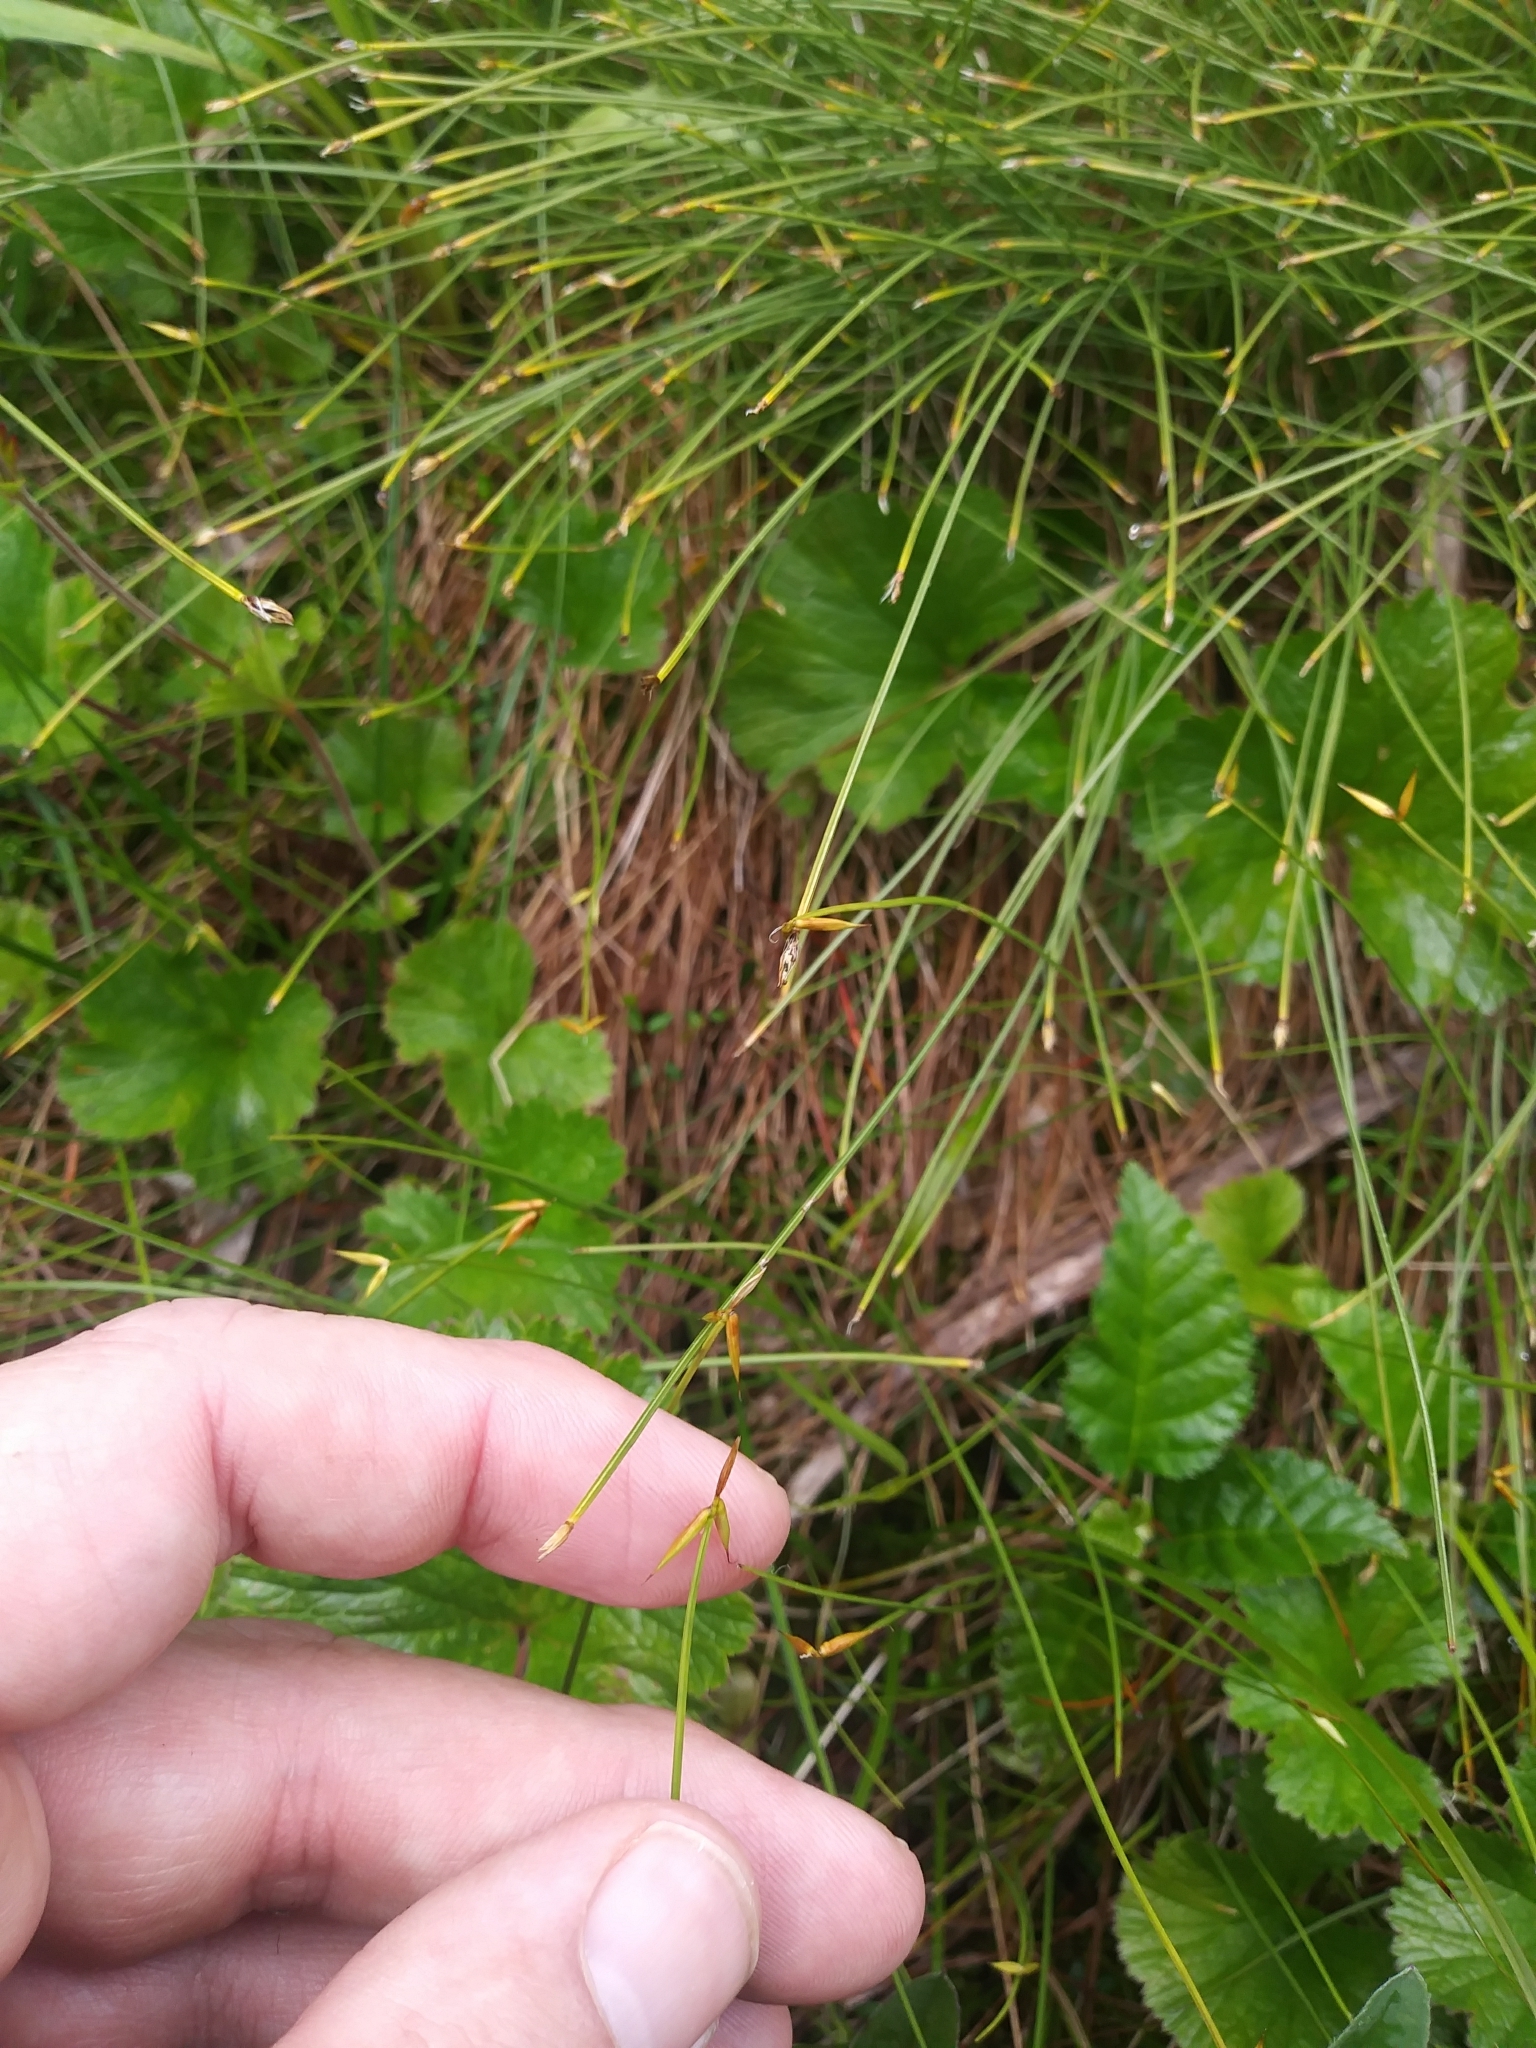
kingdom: Plantae
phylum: Tracheophyta
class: Liliopsida
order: Poales
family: Cyperaceae
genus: Carex
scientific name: Carex pauciflora
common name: Few-flowered sedge
